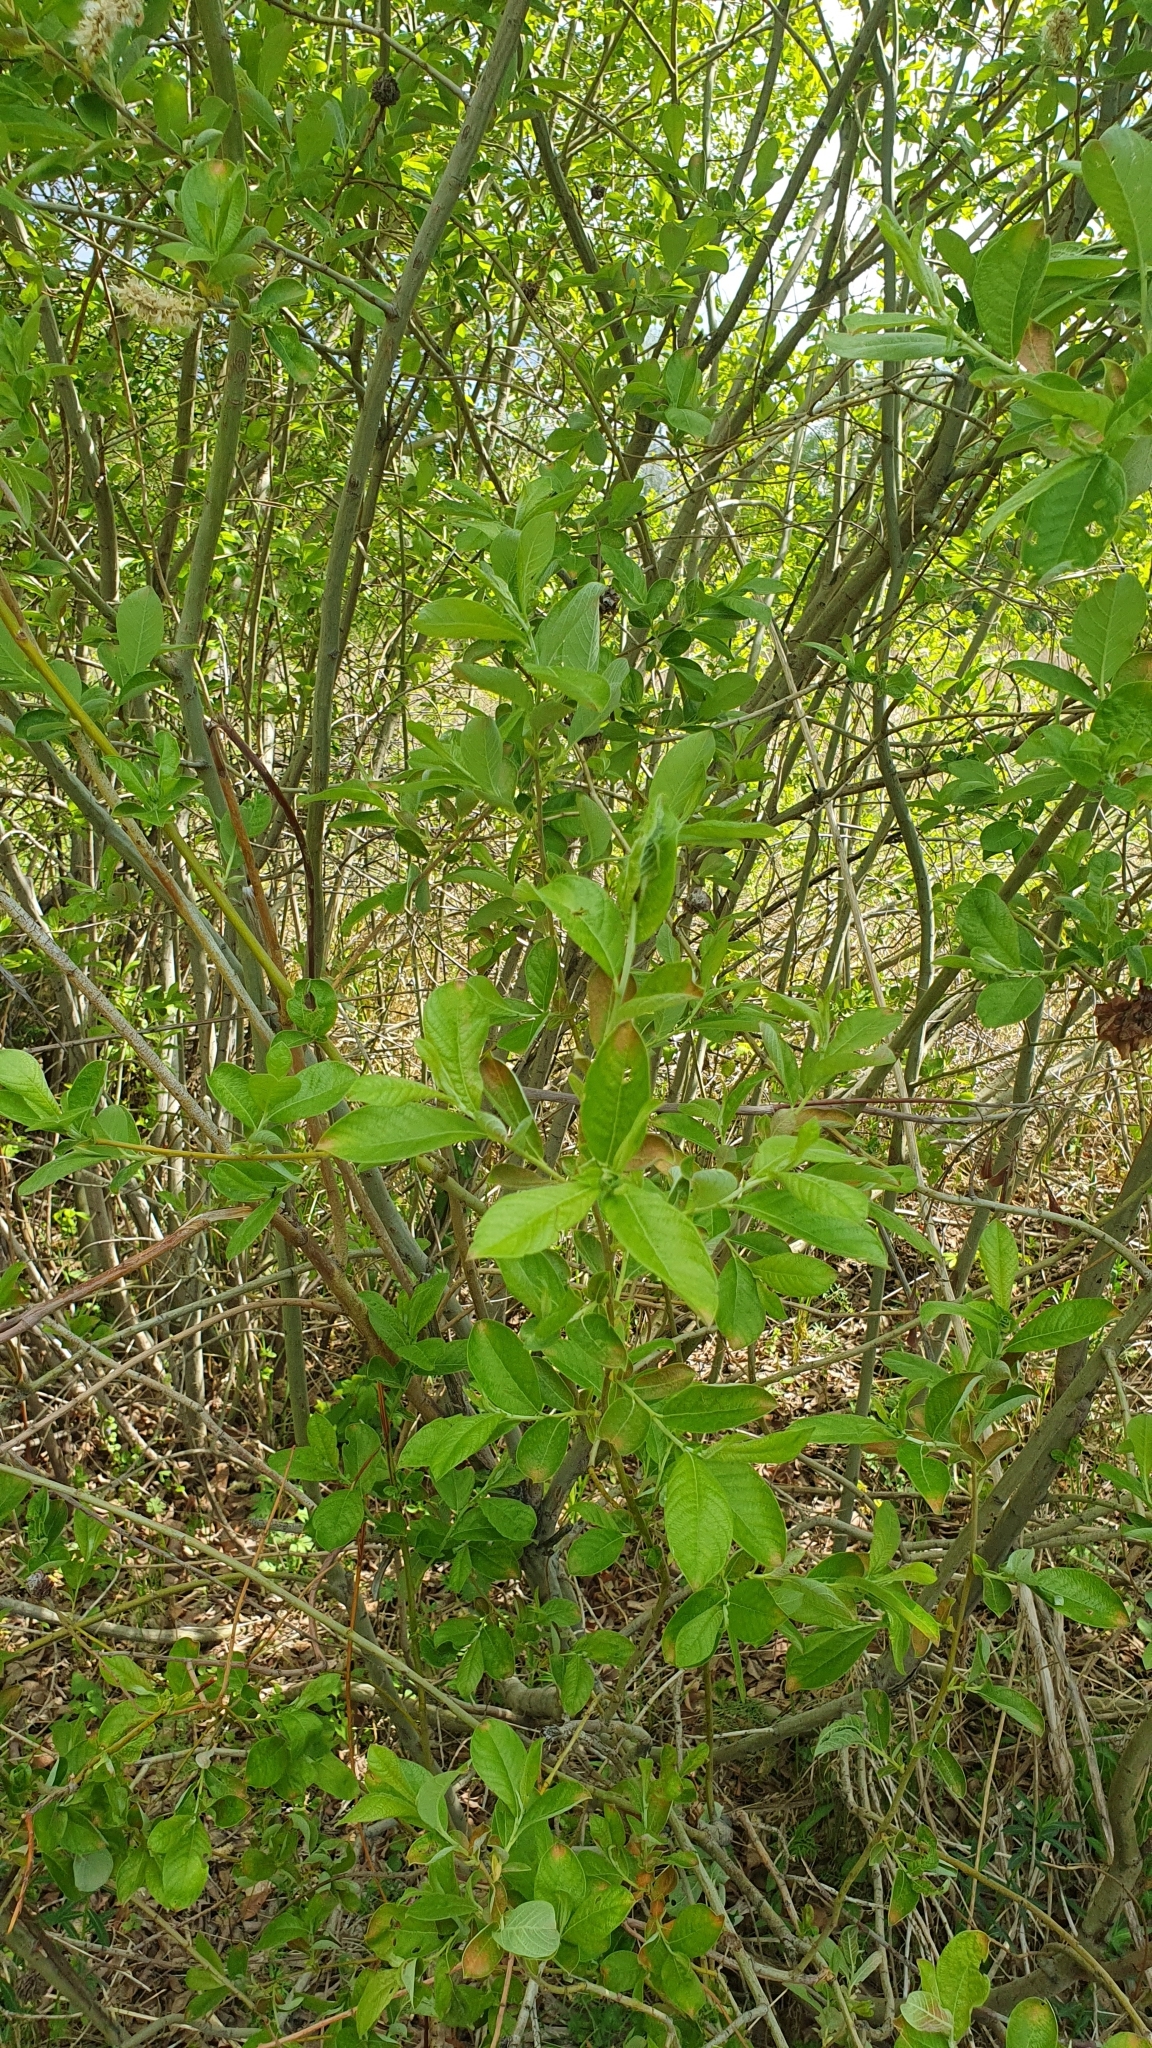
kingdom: Plantae
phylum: Tracheophyta
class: Magnoliopsida
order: Malpighiales
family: Salicaceae
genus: Salix
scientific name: Salix caprea
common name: Goat willow
